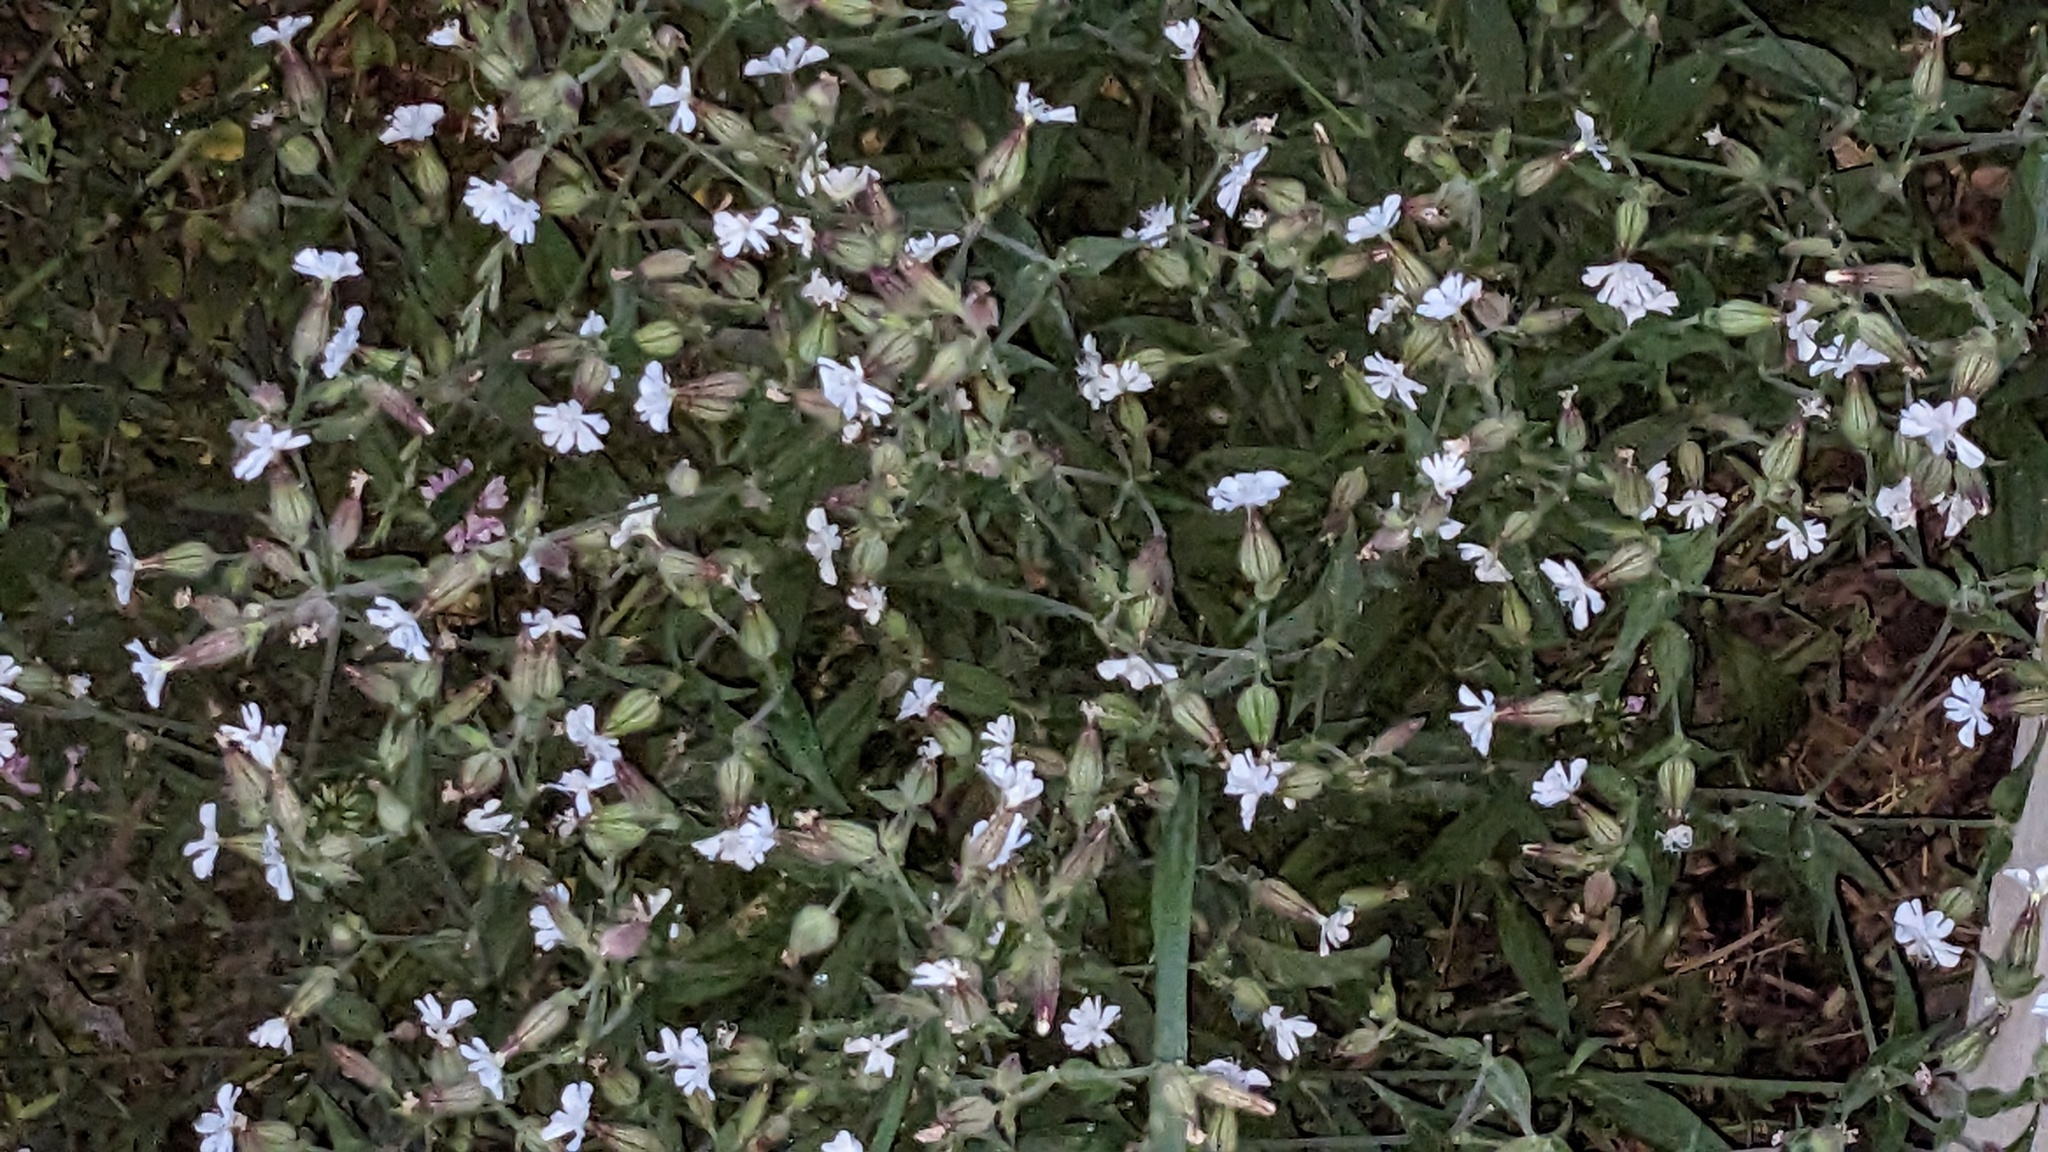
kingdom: Plantae
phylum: Tracheophyta
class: Magnoliopsida
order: Caryophyllales
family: Caryophyllaceae
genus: Silene
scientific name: Silene latifolia
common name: White campion
